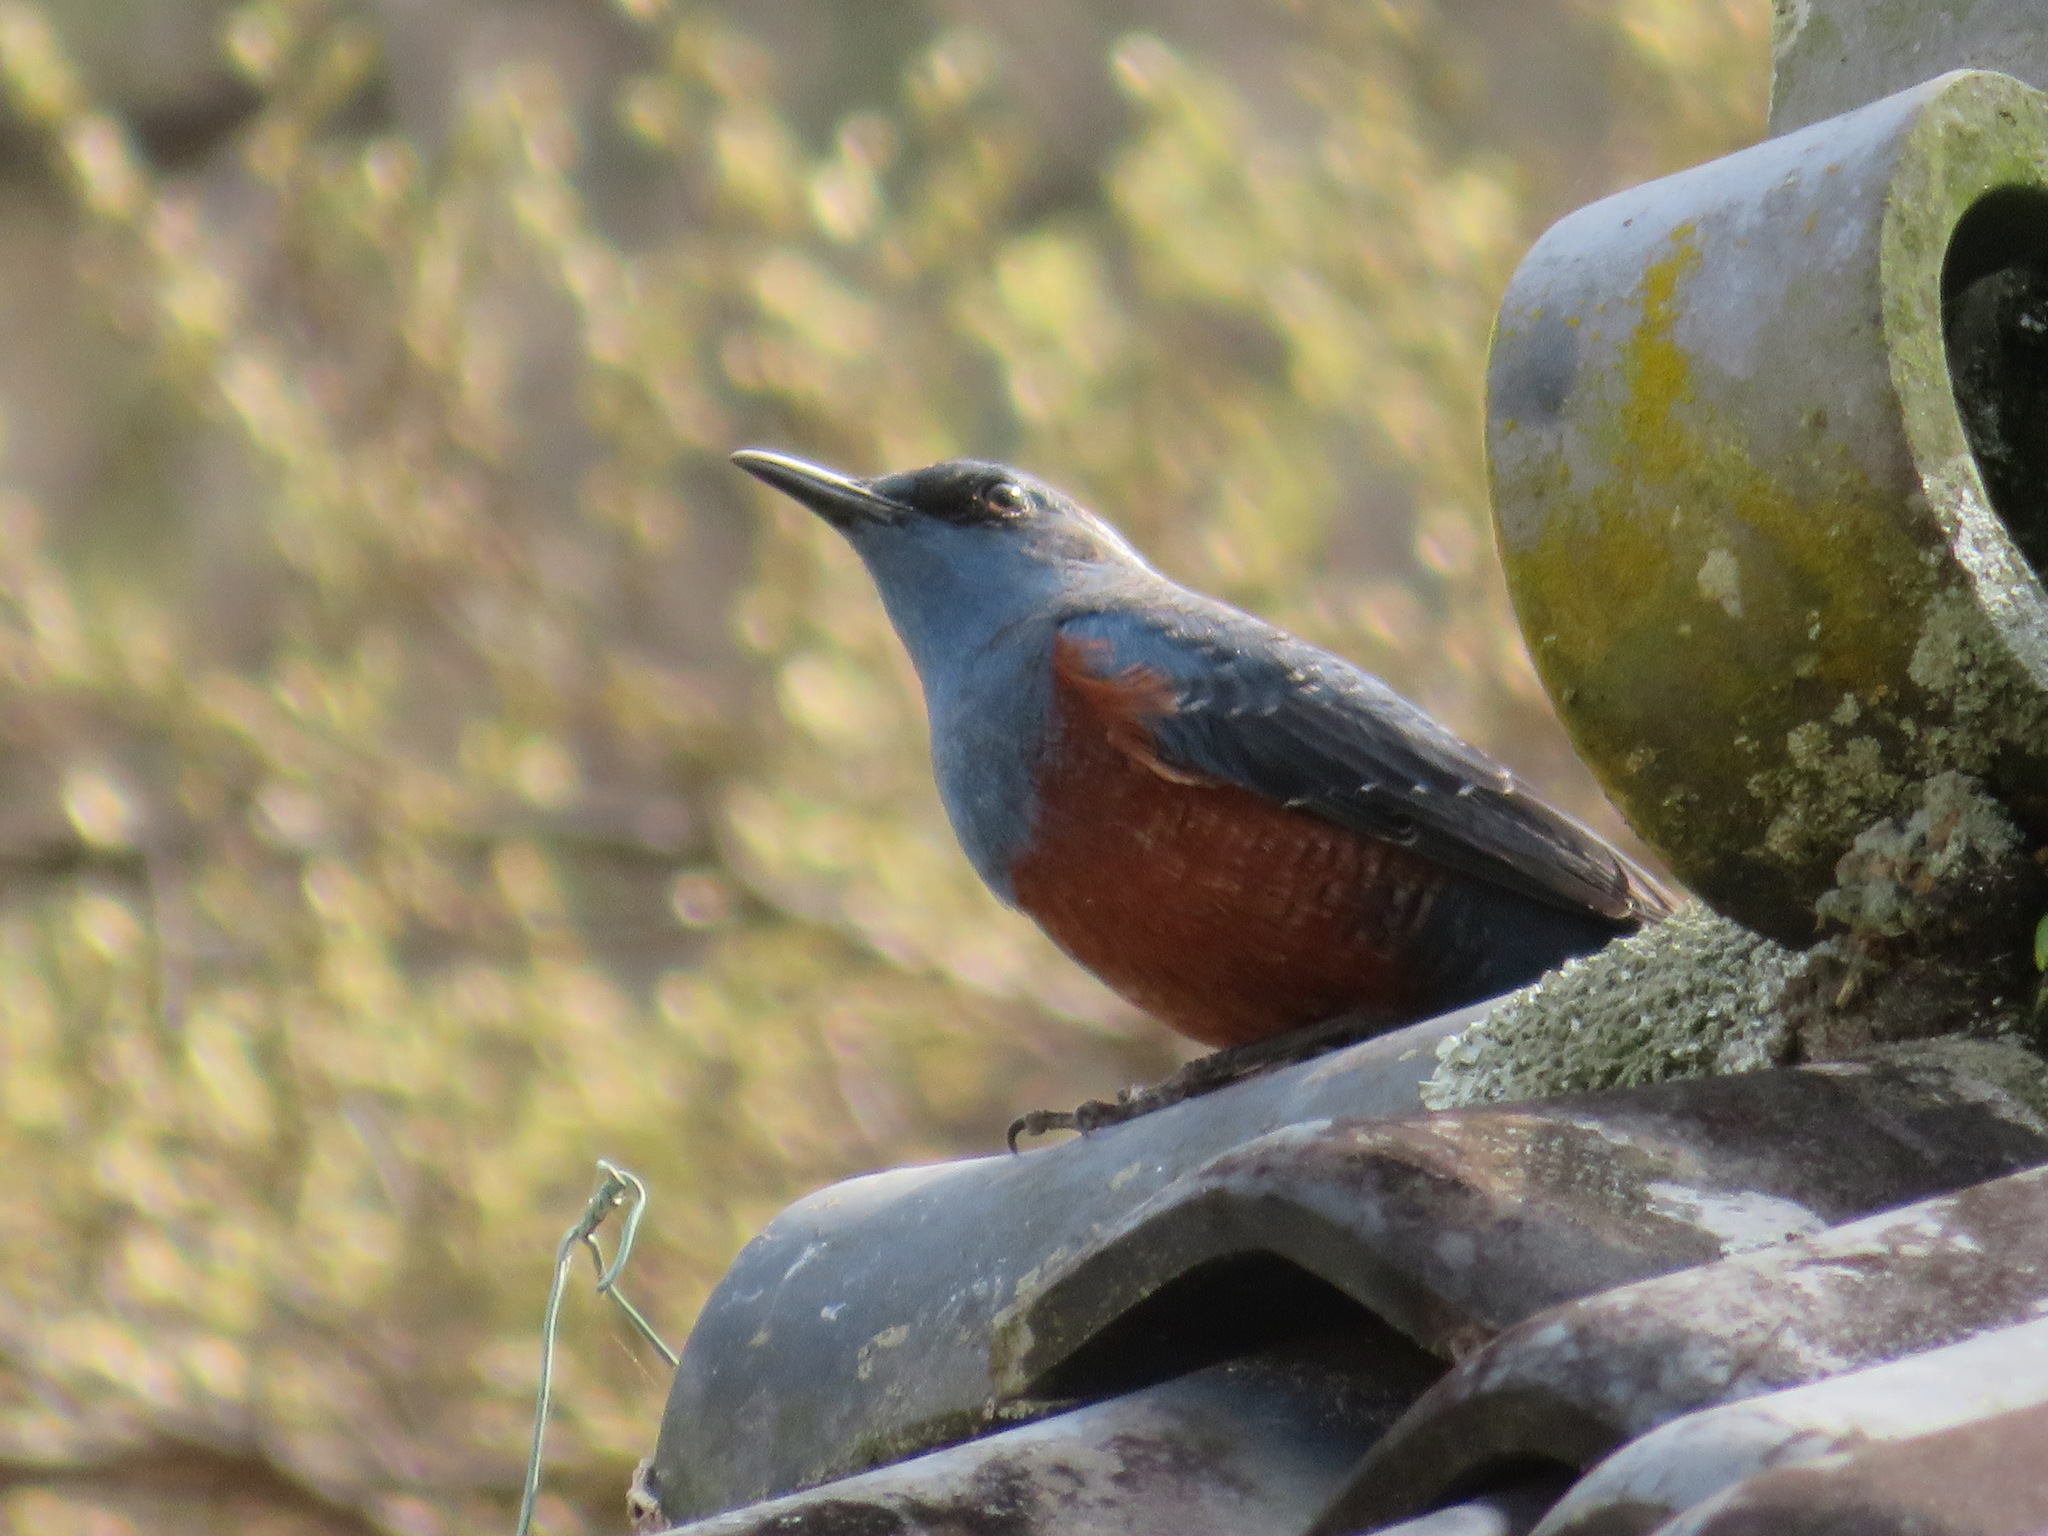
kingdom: Animalia
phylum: Chordata
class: Aves
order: Passeriformes
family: Muscicapidae
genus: Monticola
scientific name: Monticola solitarius
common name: Blue rock thrush
